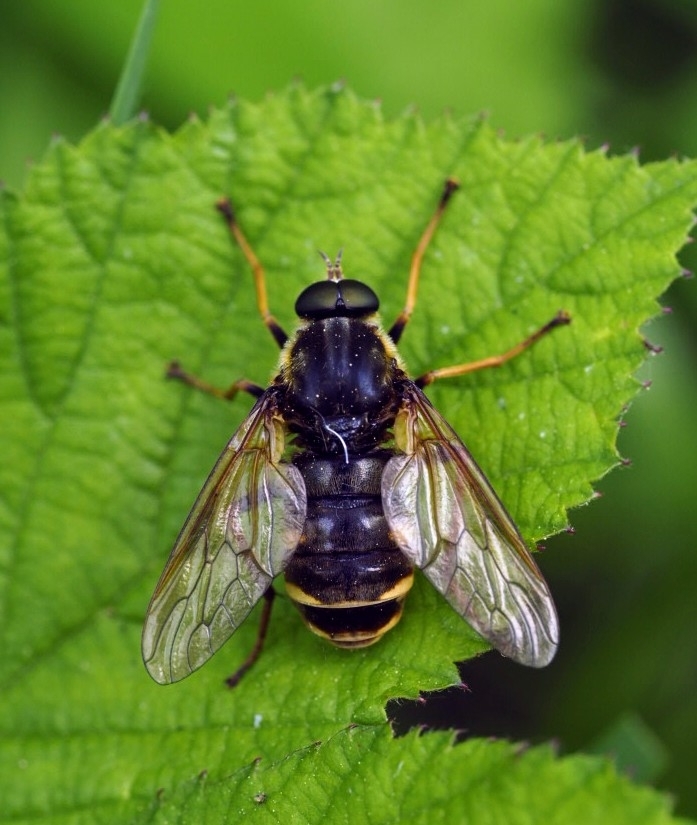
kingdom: Animalia
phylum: Arthropoda
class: Insecta
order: Diptera
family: Xylophagidae
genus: Coenomyia
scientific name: Coenomyia ferruginea
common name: Stink fly
